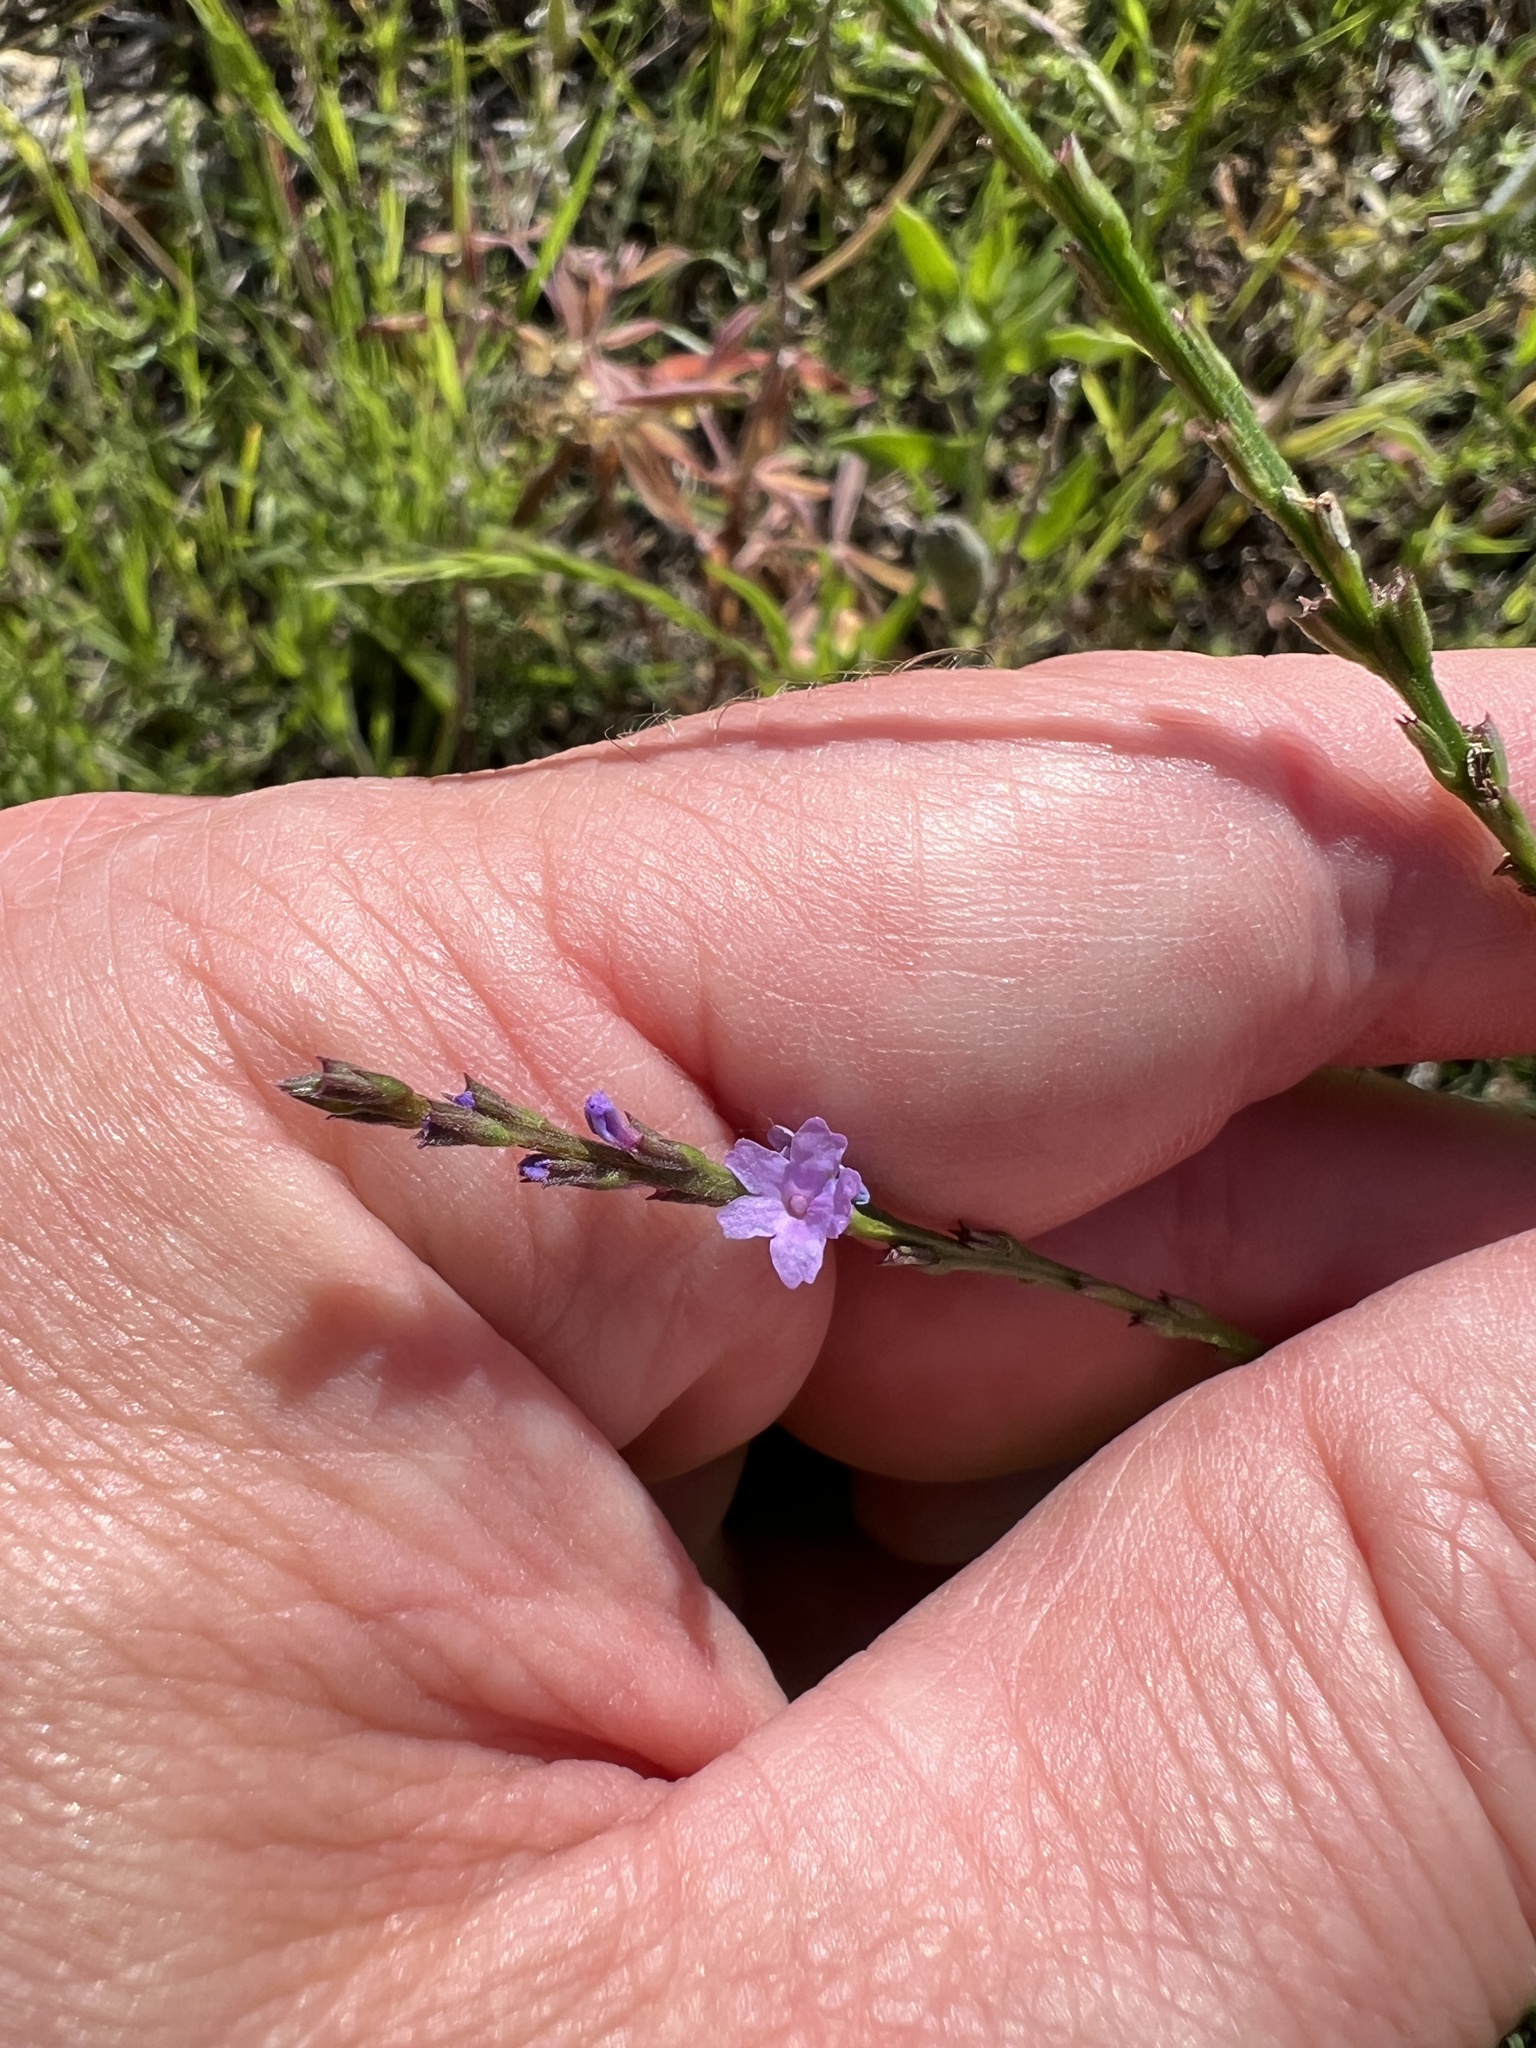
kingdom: Plantae
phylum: Tracheophyta
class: Magnoliopsida
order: Lamiales
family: Verbenaceae
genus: Verbena
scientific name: Verbena halei
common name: Texas vervain
